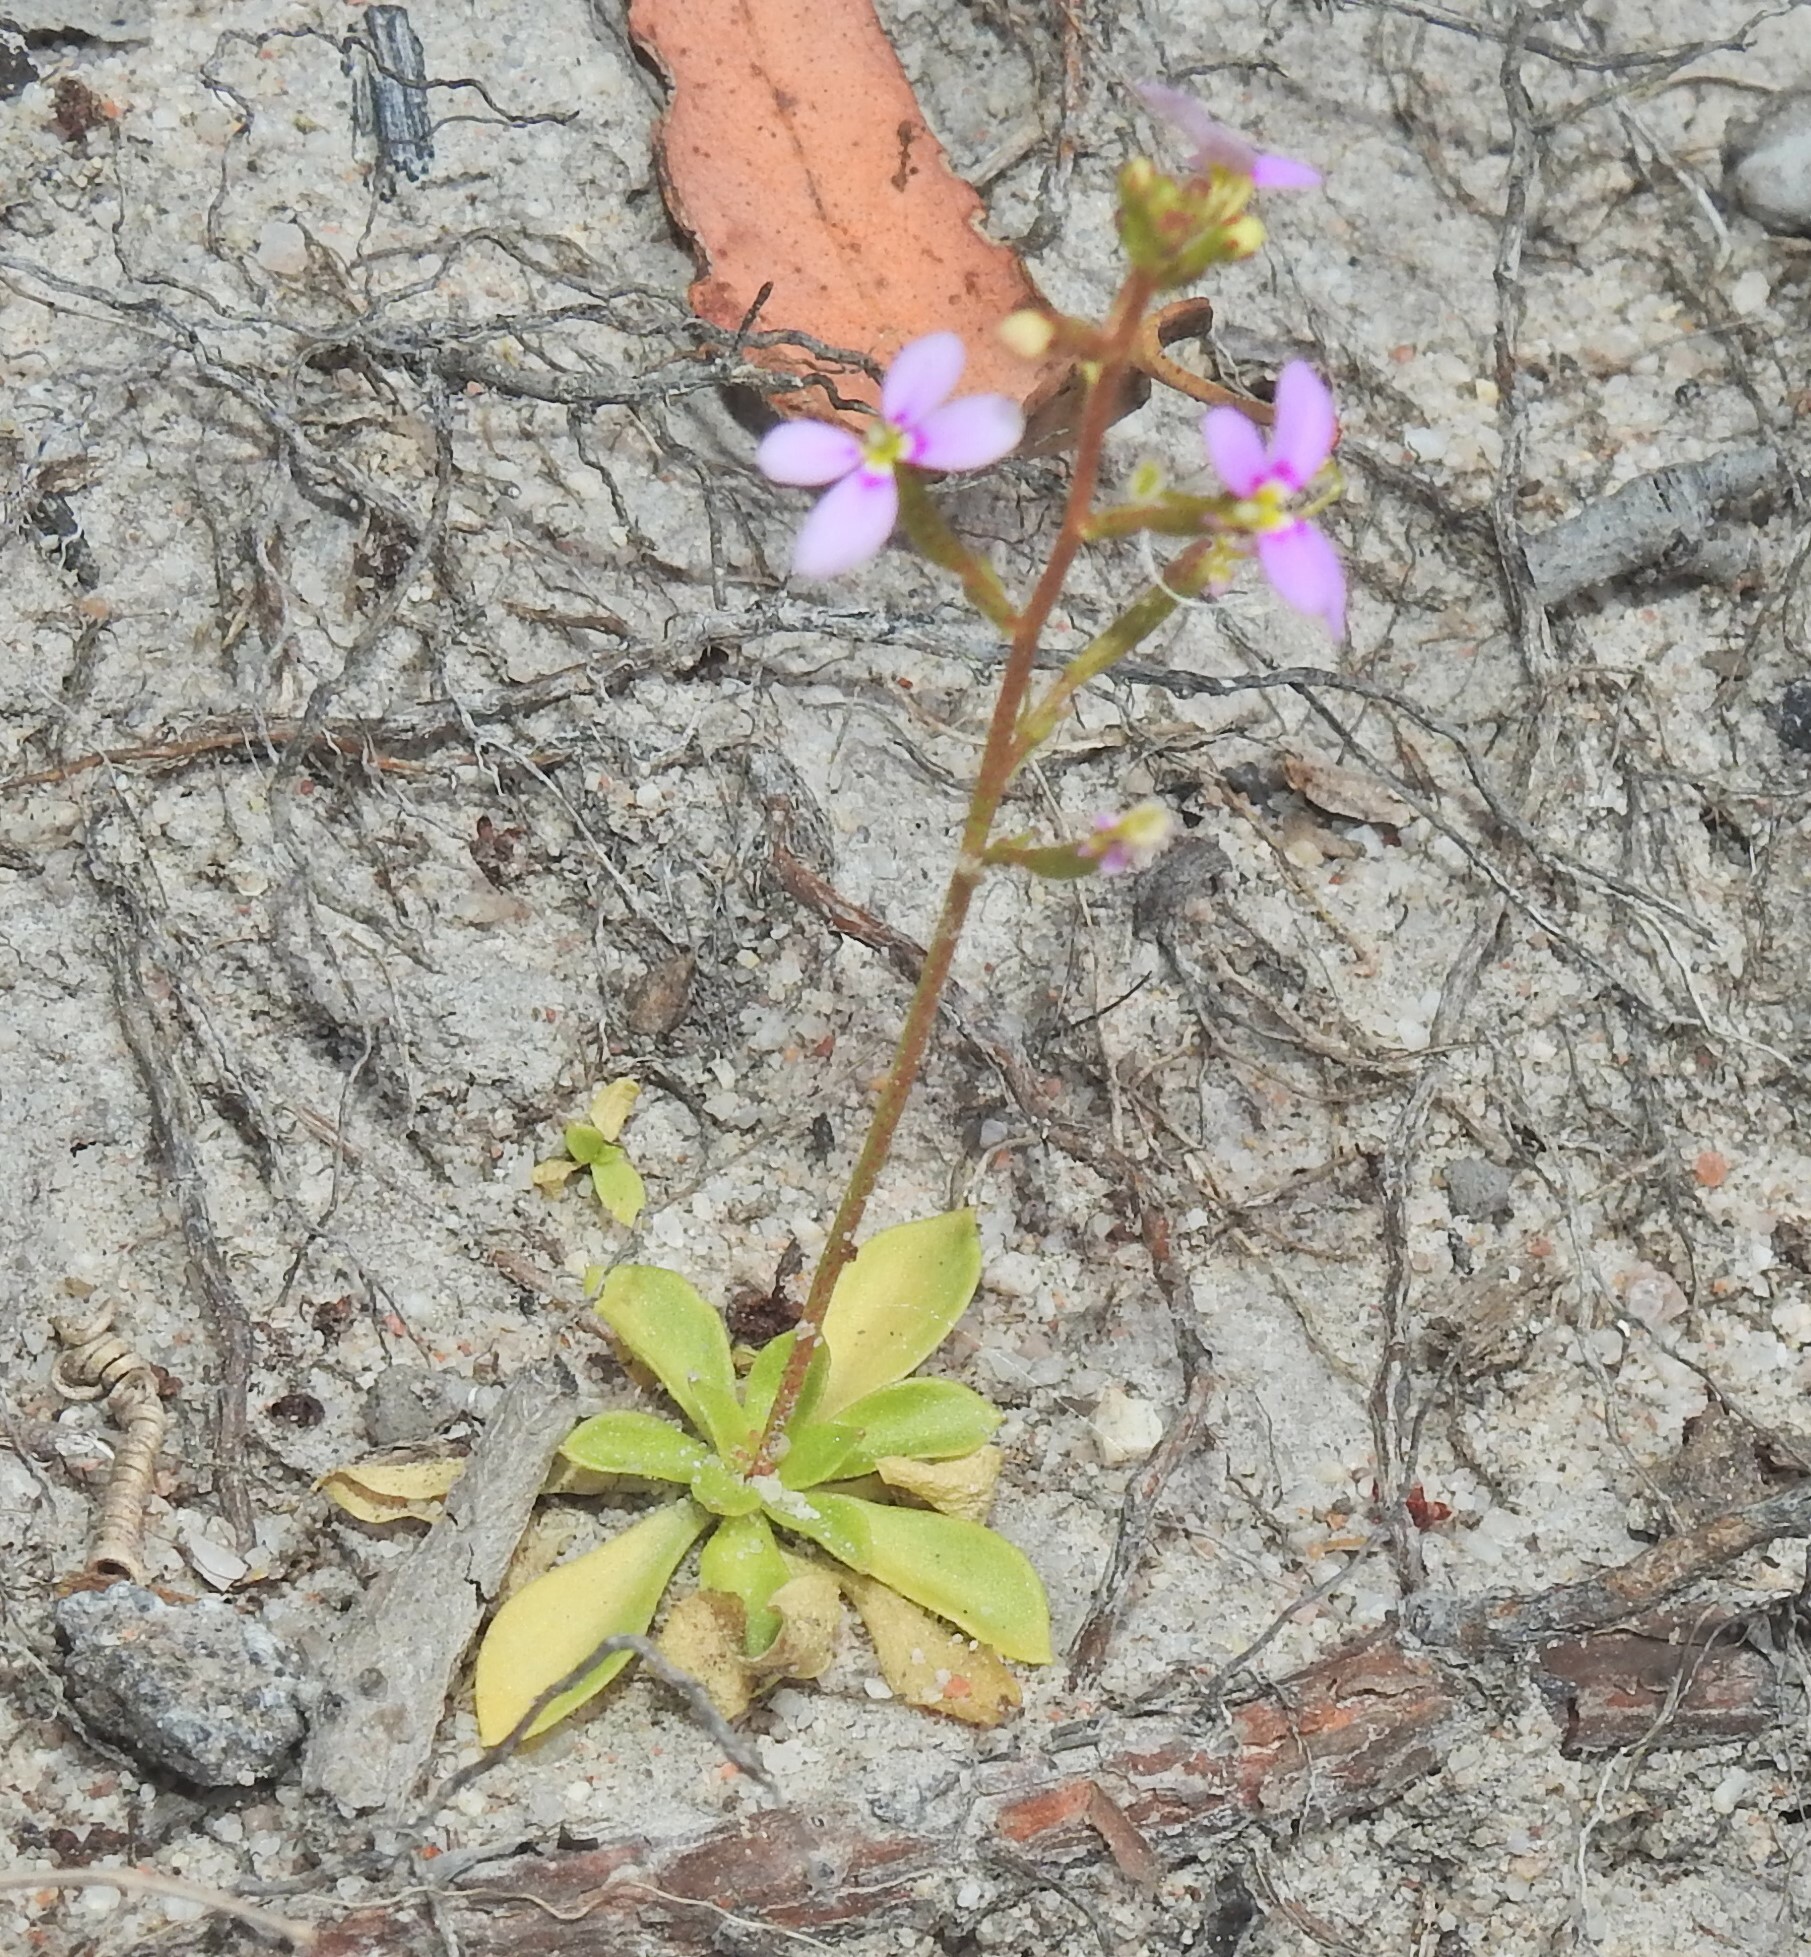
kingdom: Plantae
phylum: Tracheophyta
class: Magnoliopsida
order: Asterales
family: Stylidiaceae
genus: Stylidium
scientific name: Stylidium debile
